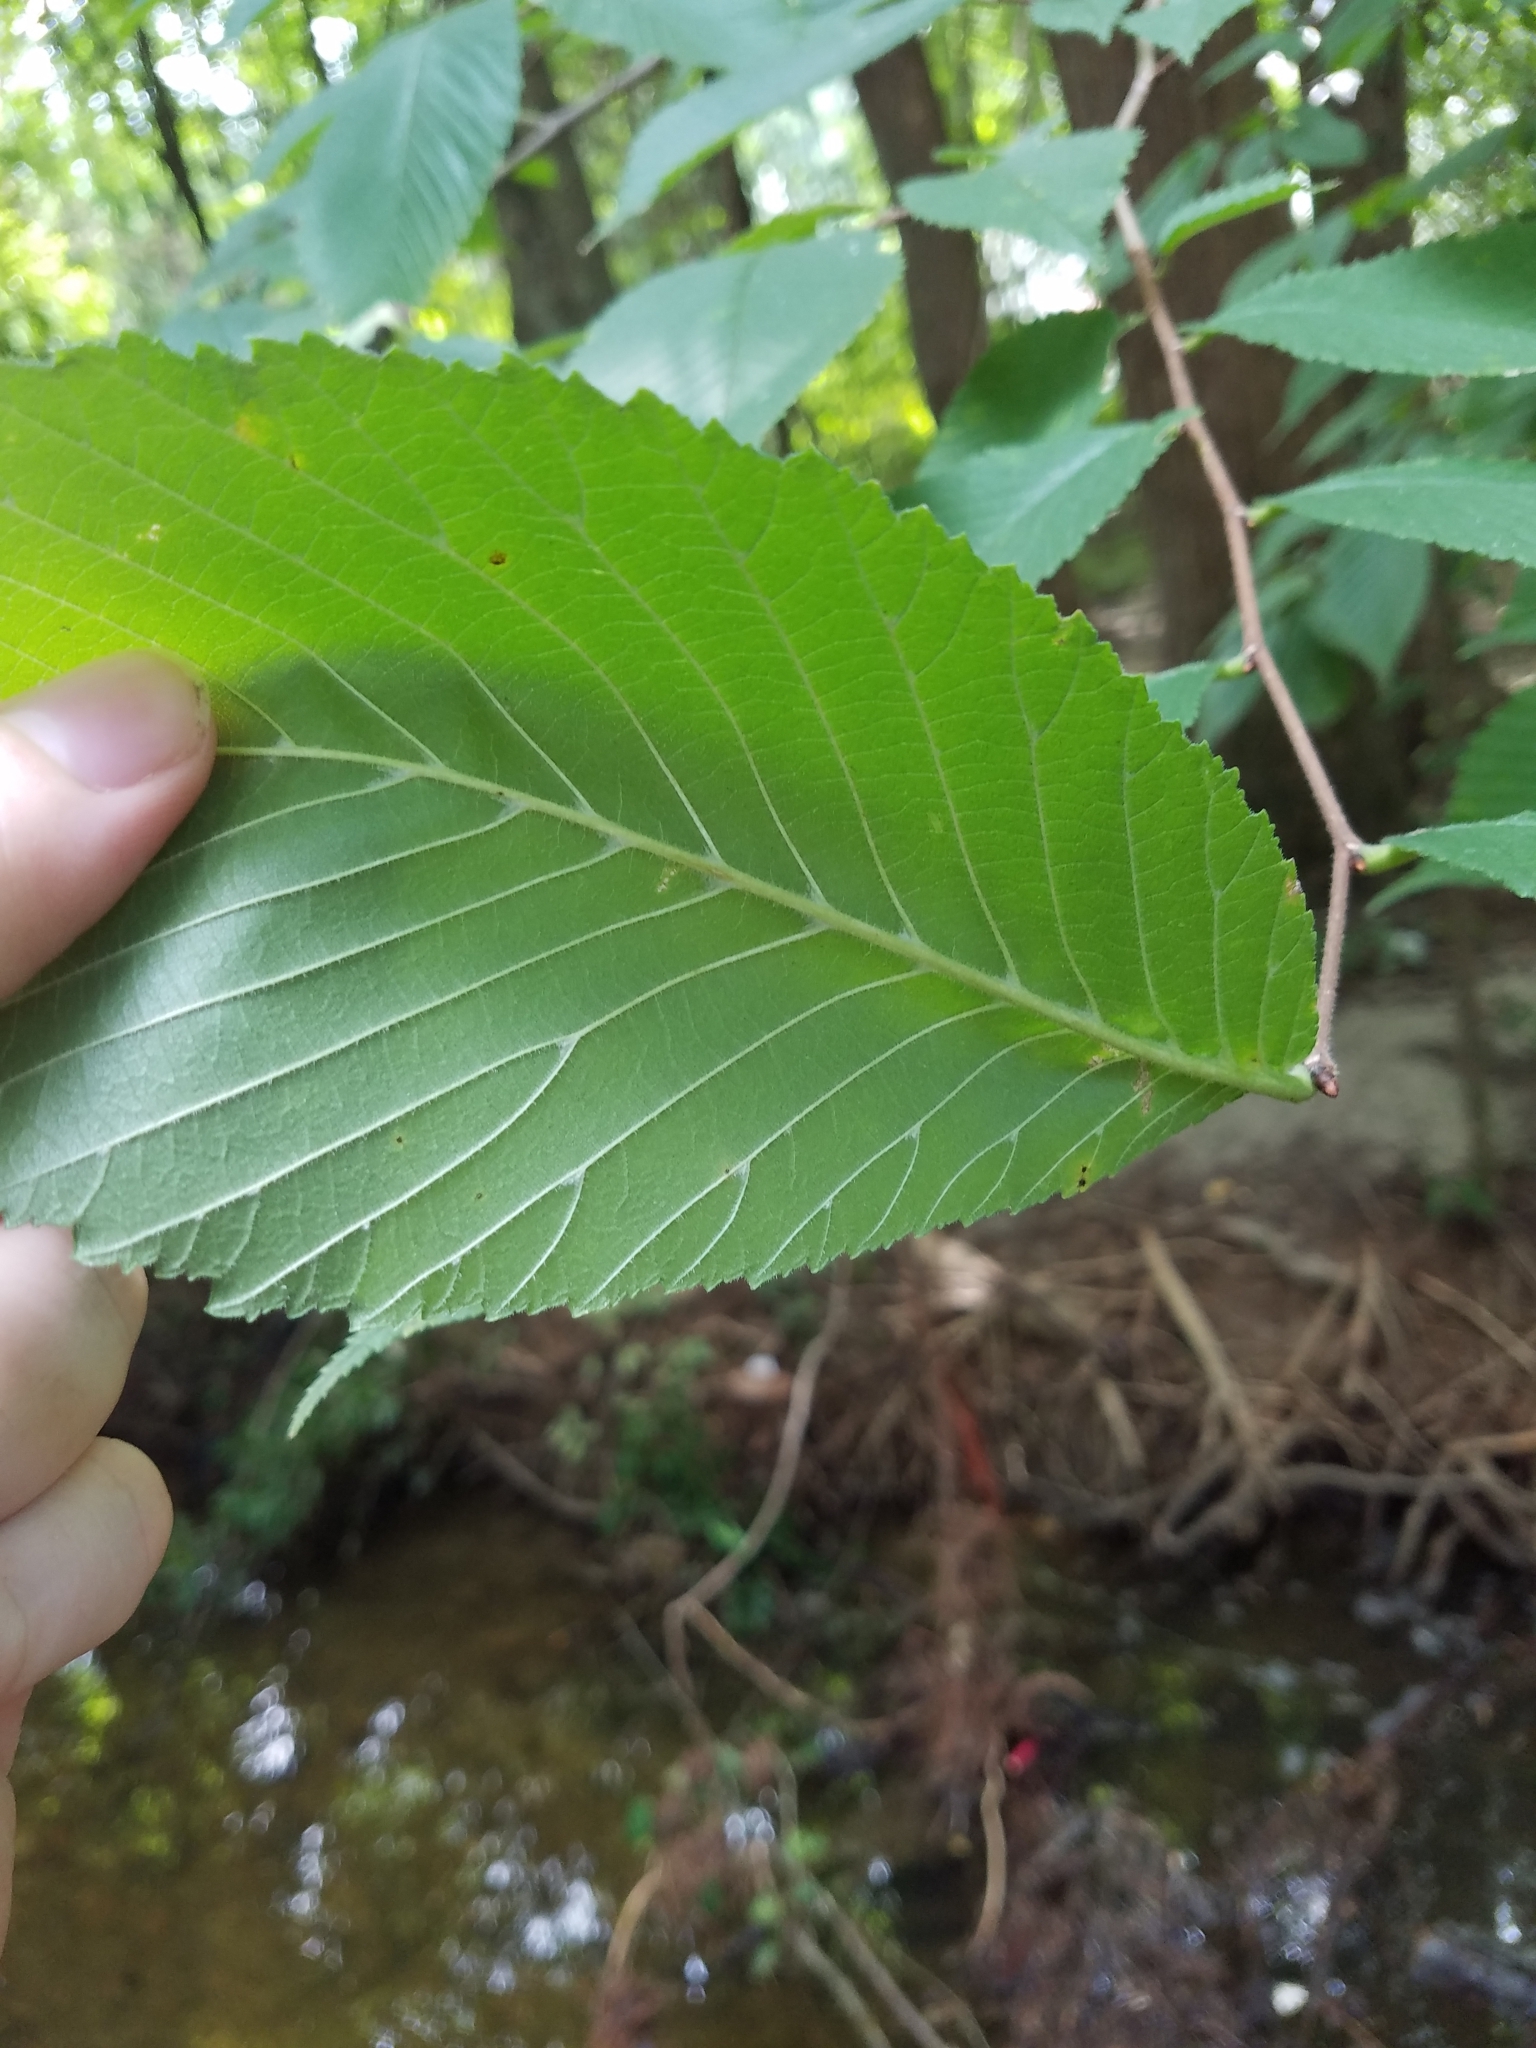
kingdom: Plantae
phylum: Tracheophyta
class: Magnoliopsida
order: Rosales
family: Ulmaceae
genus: Ulmus
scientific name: Ulmus rubra
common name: Slippery elm
